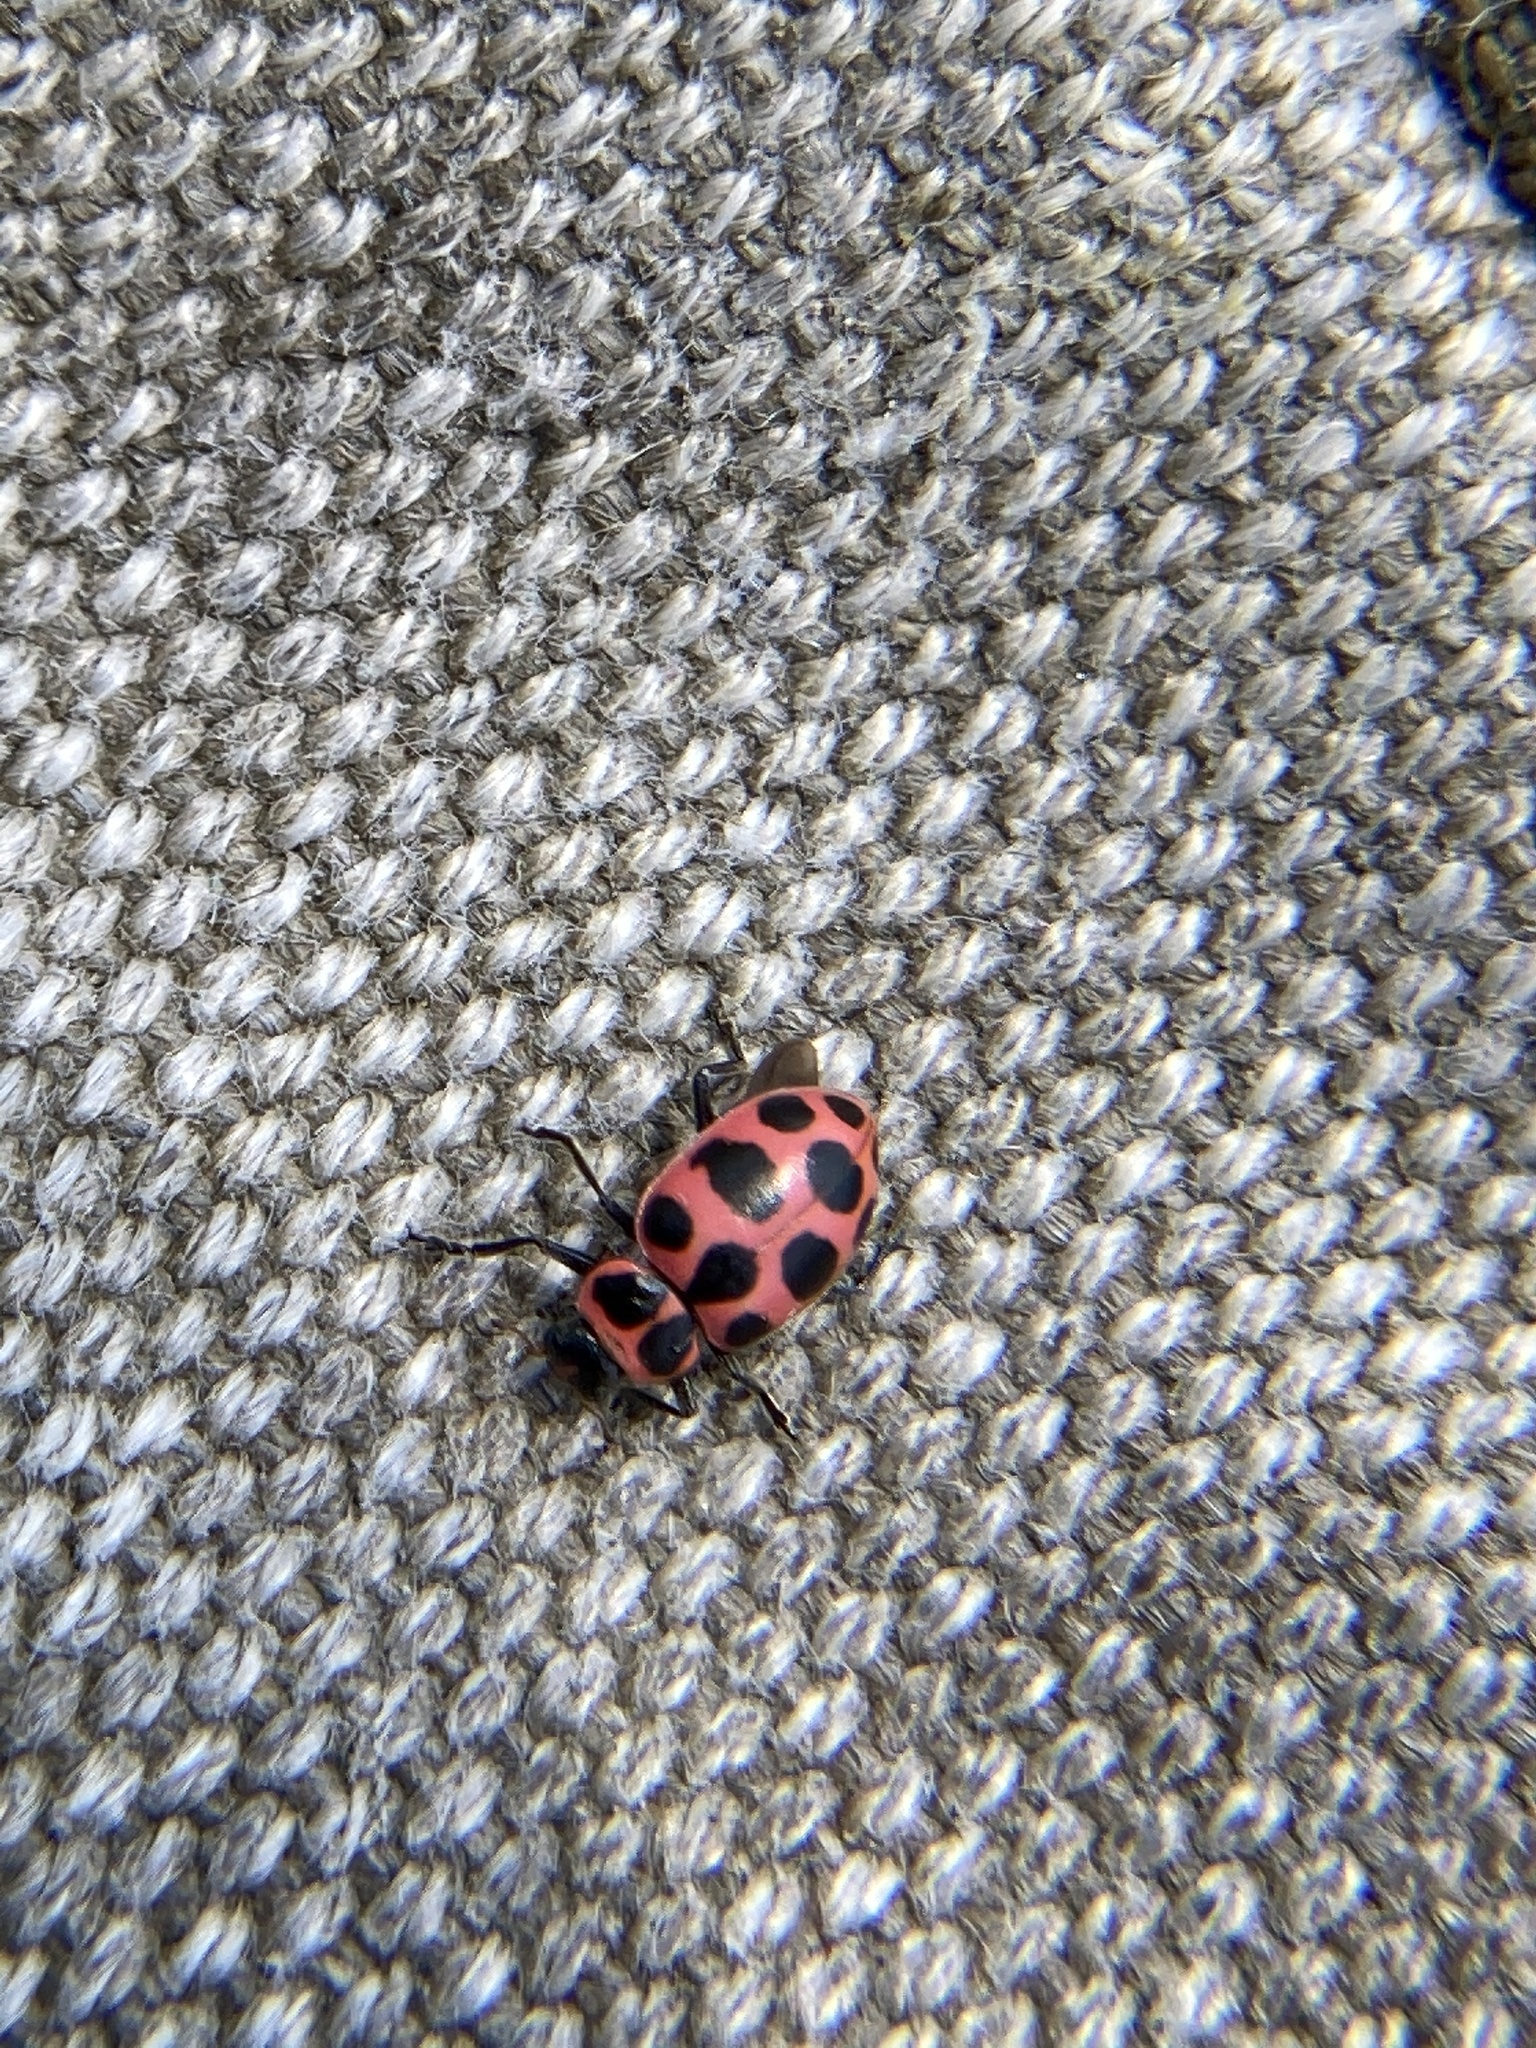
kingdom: Animalia
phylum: Arthropoda
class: Insecta
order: Coleoptera
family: Coccinellidae
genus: Coleomegilla
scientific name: Coleomegilla maculata
